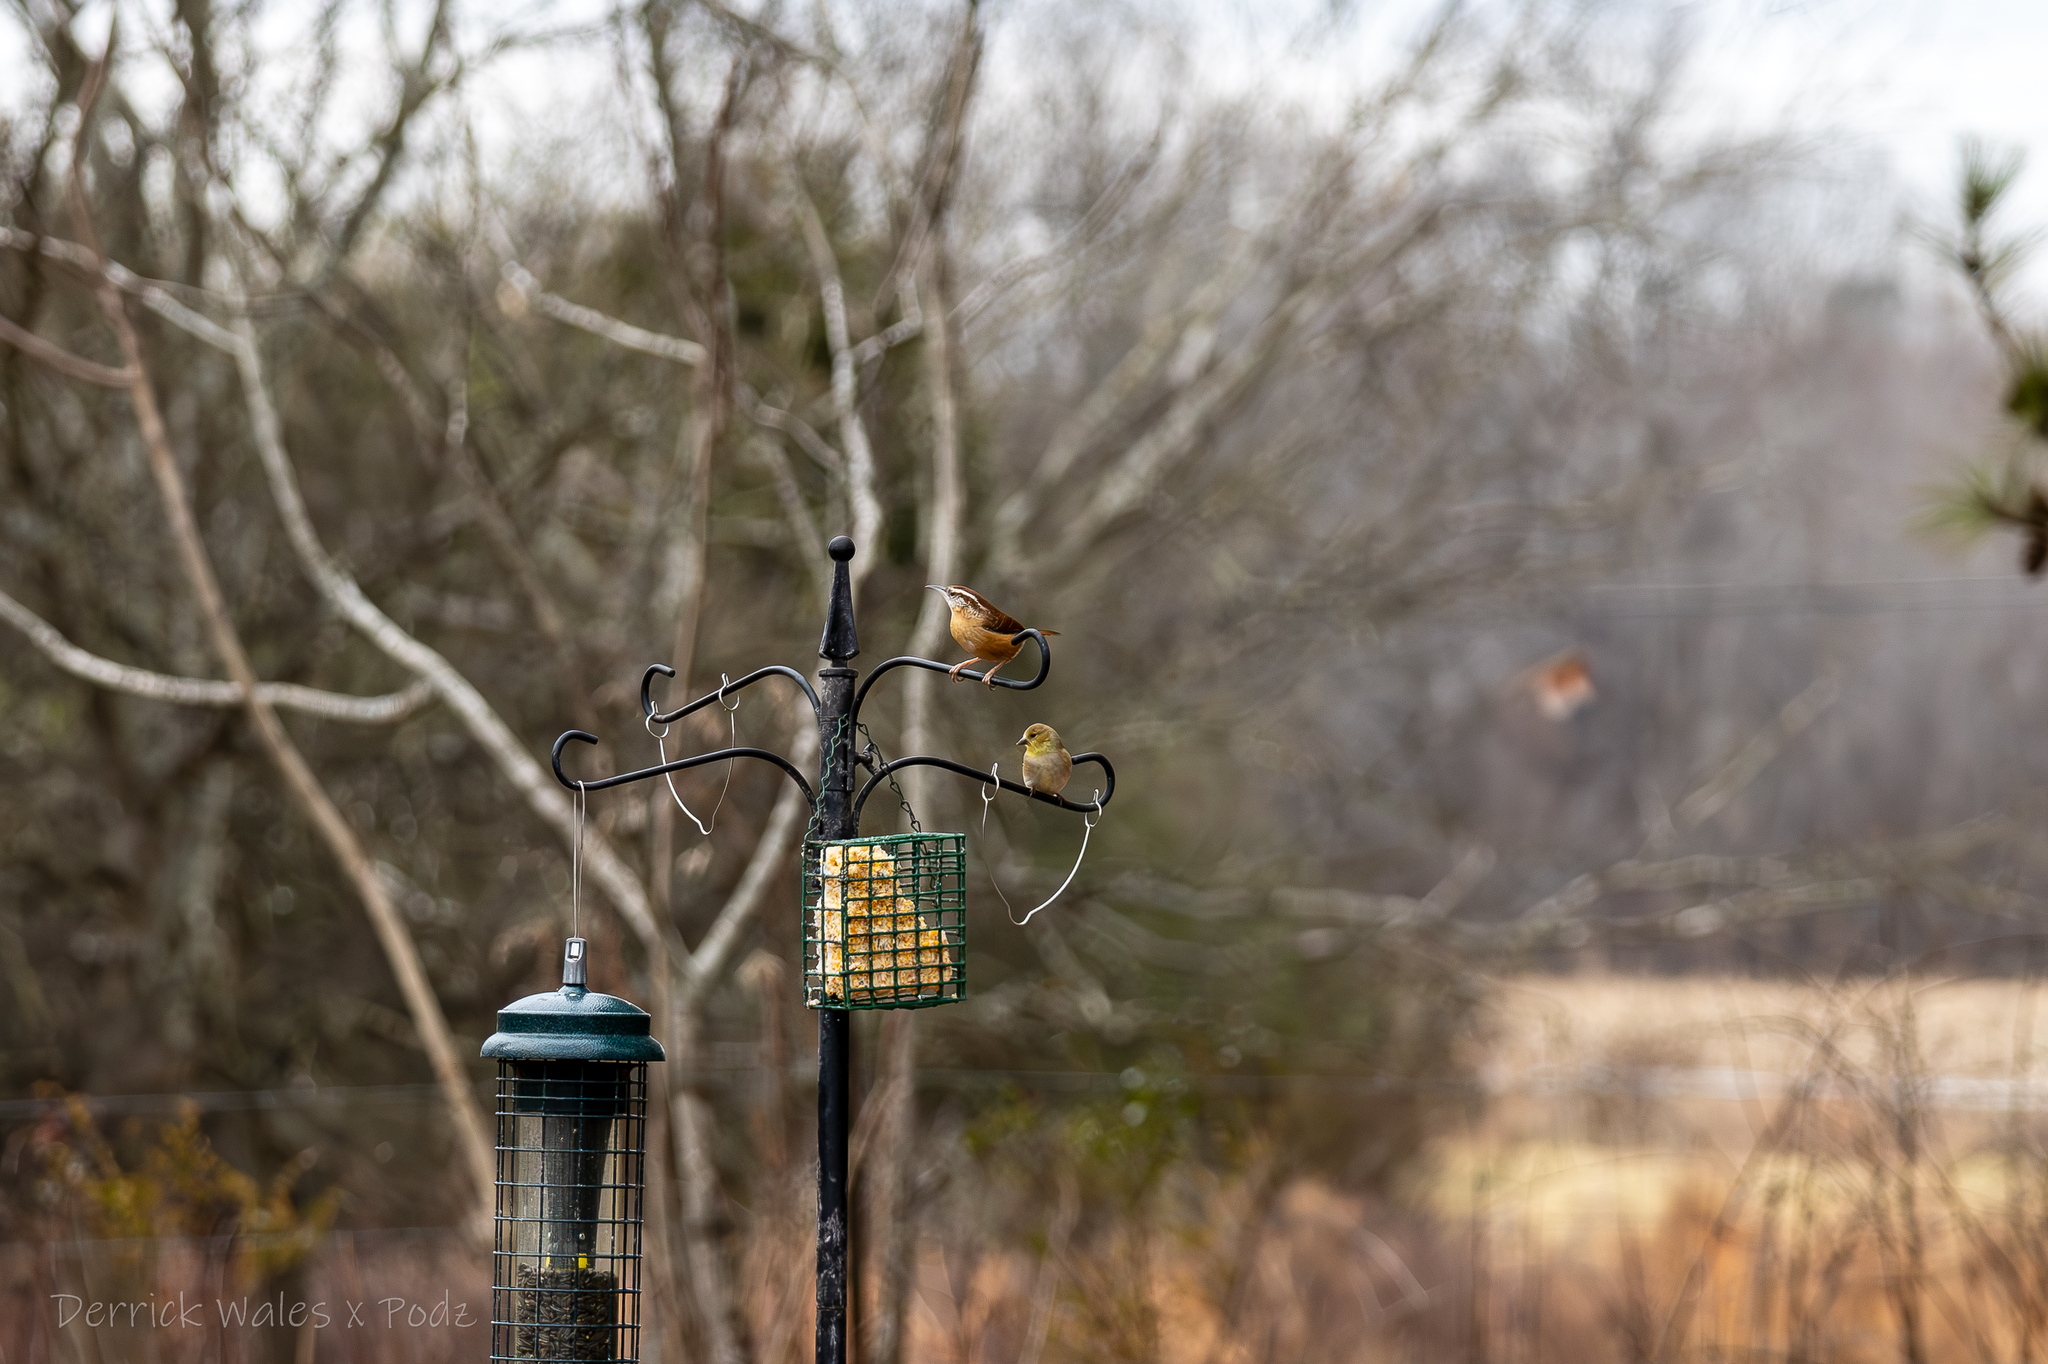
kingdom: Animalia
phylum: Chordata
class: Aves
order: Passeriformes
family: Troglodytidae
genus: Thryothorus
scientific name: Thryothorus ludovicianus
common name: Carolina wren
